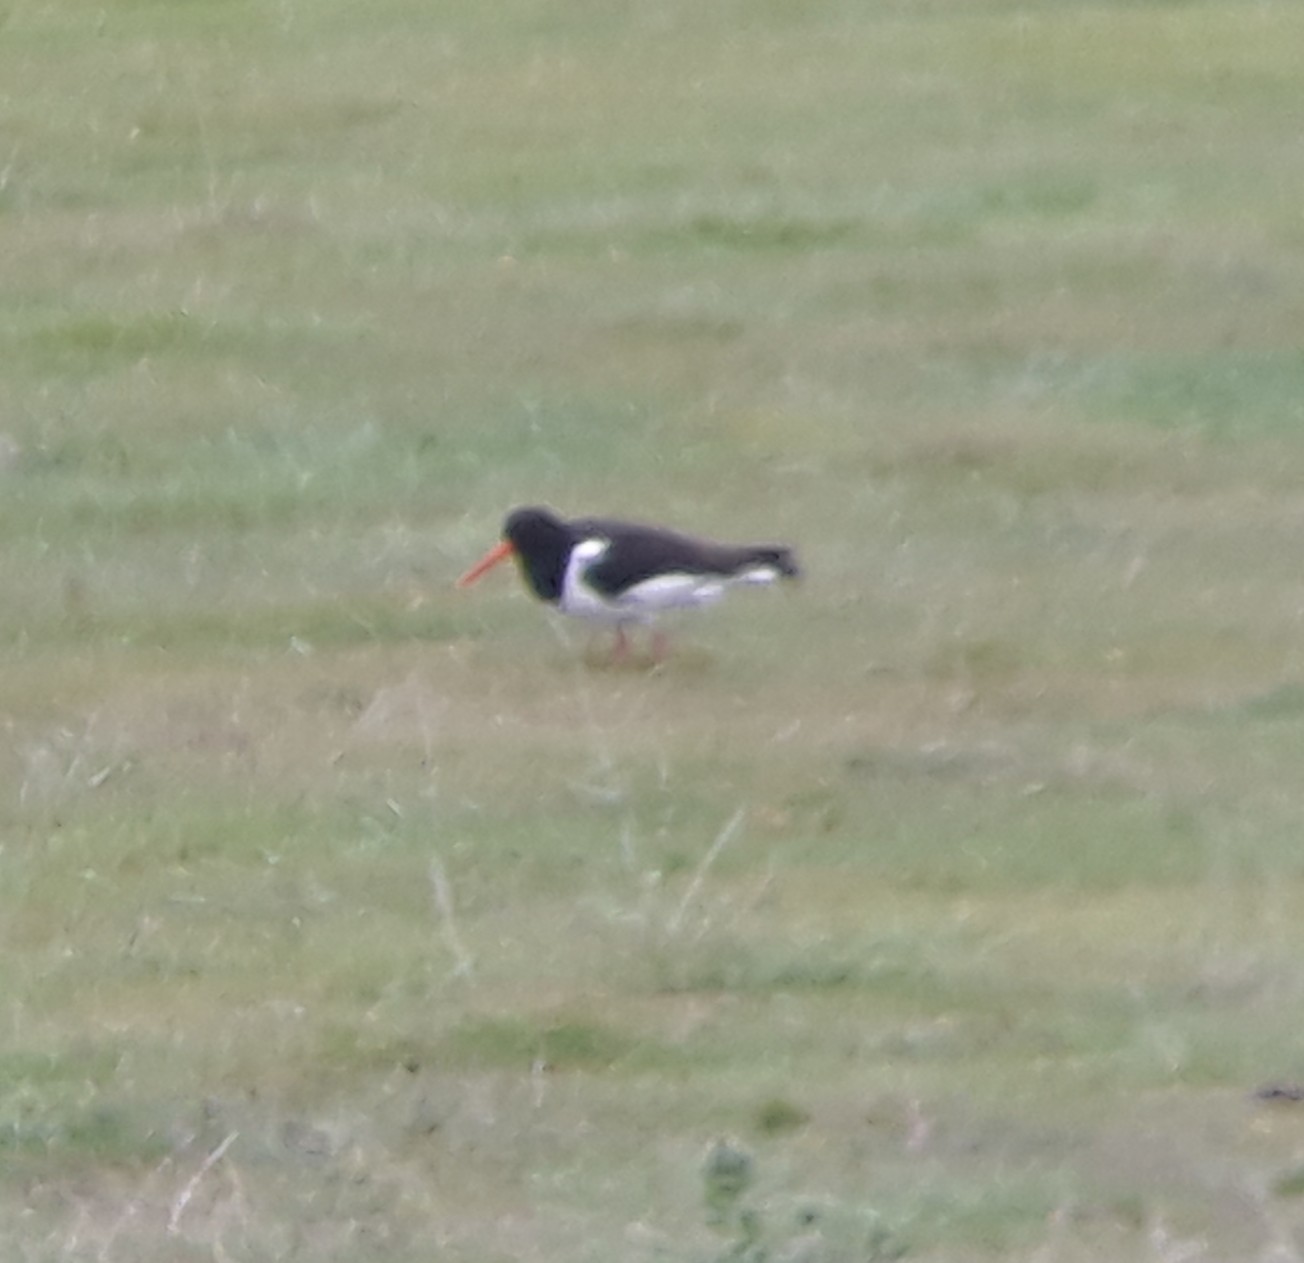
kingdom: Animalia
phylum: Chordata
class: Aves
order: Charadriiformes
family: Haematopodidae
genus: Haematopus
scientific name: Haematopus ostralegus
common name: Eurasian oystercatcher
